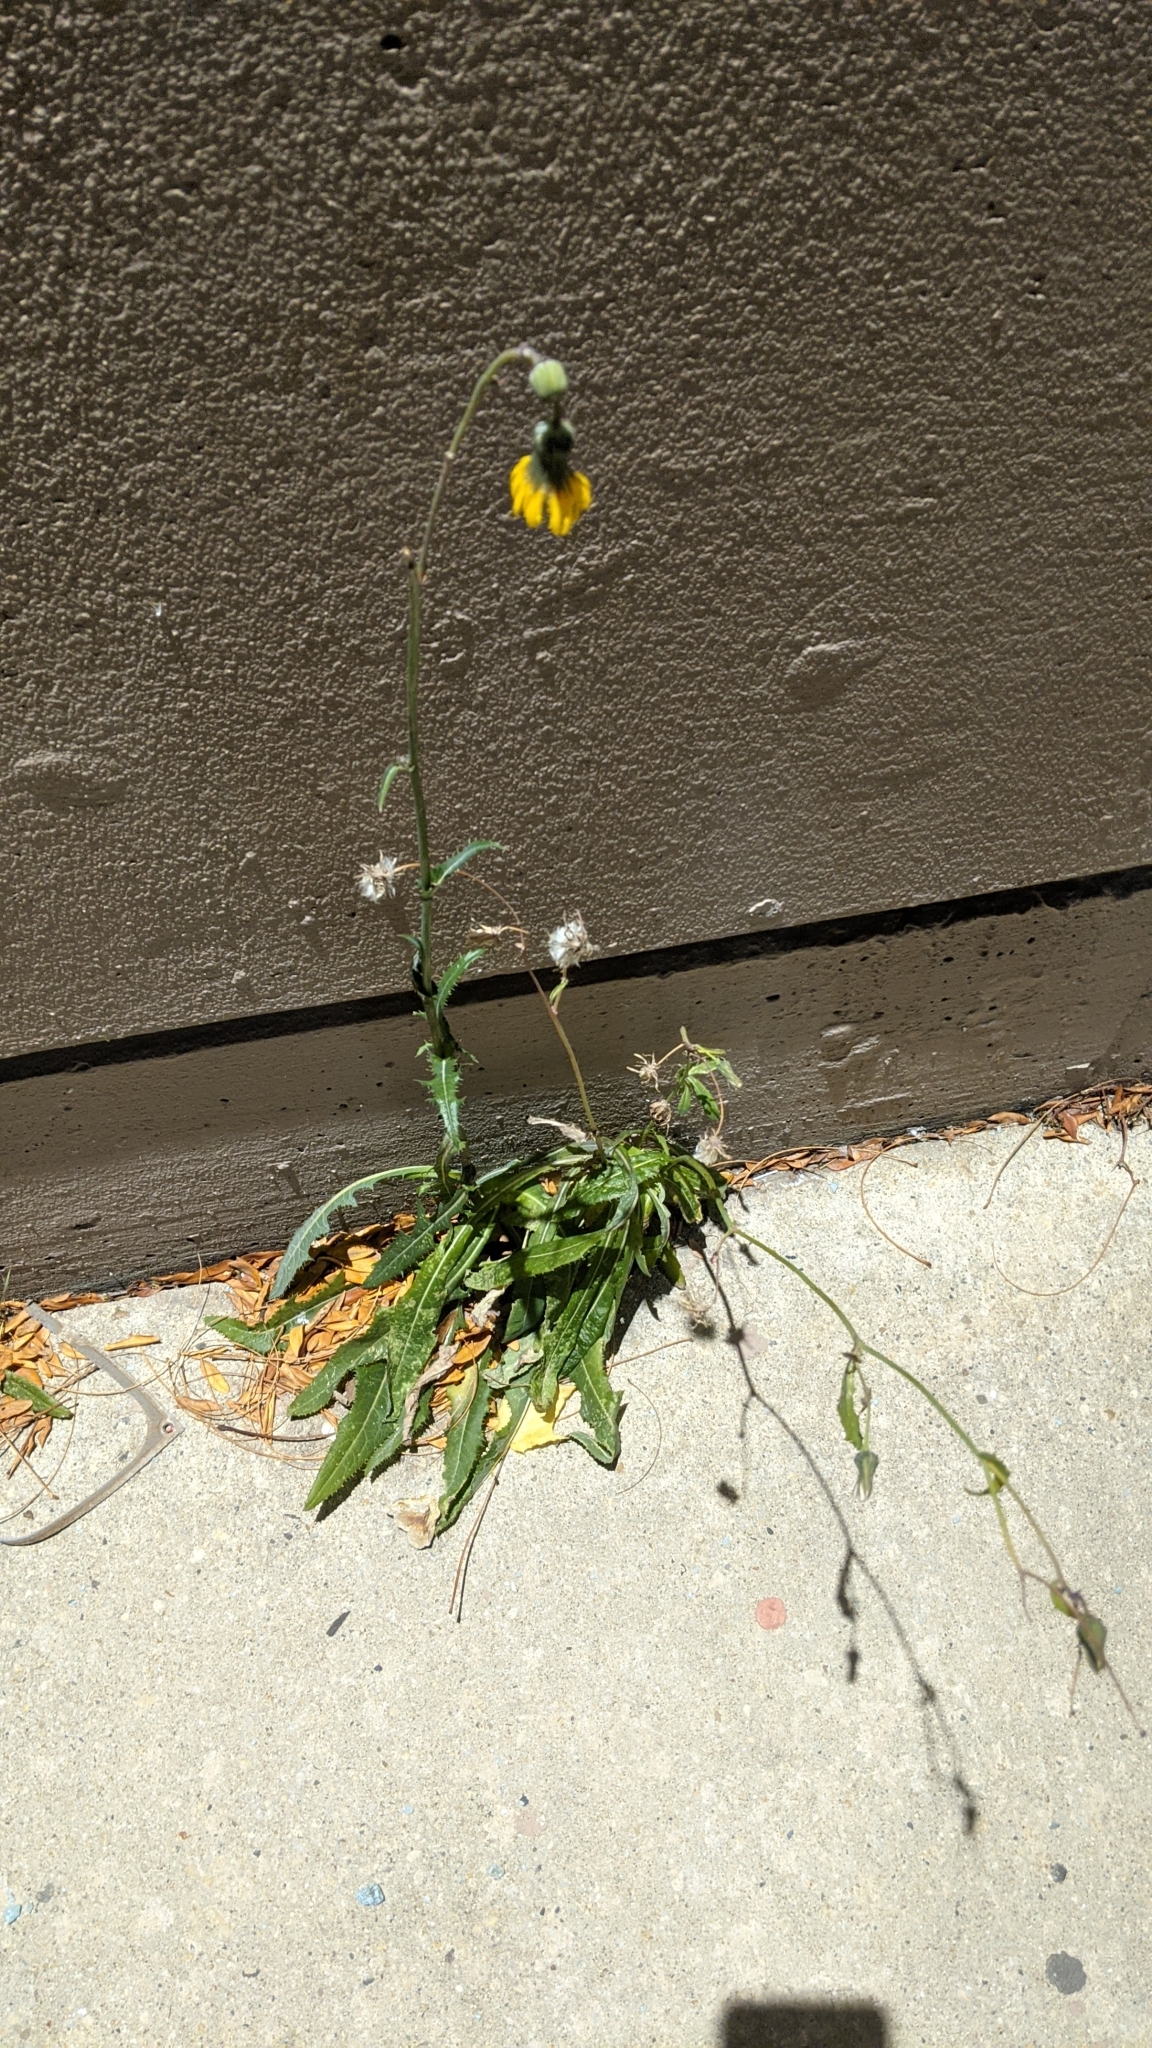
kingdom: Plantae
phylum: Tracheophyta
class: Magnoliopsida
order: Asterales
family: Asteraceae
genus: Sonchus
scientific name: Sonchus arvensis
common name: Perennial sow-thistle
